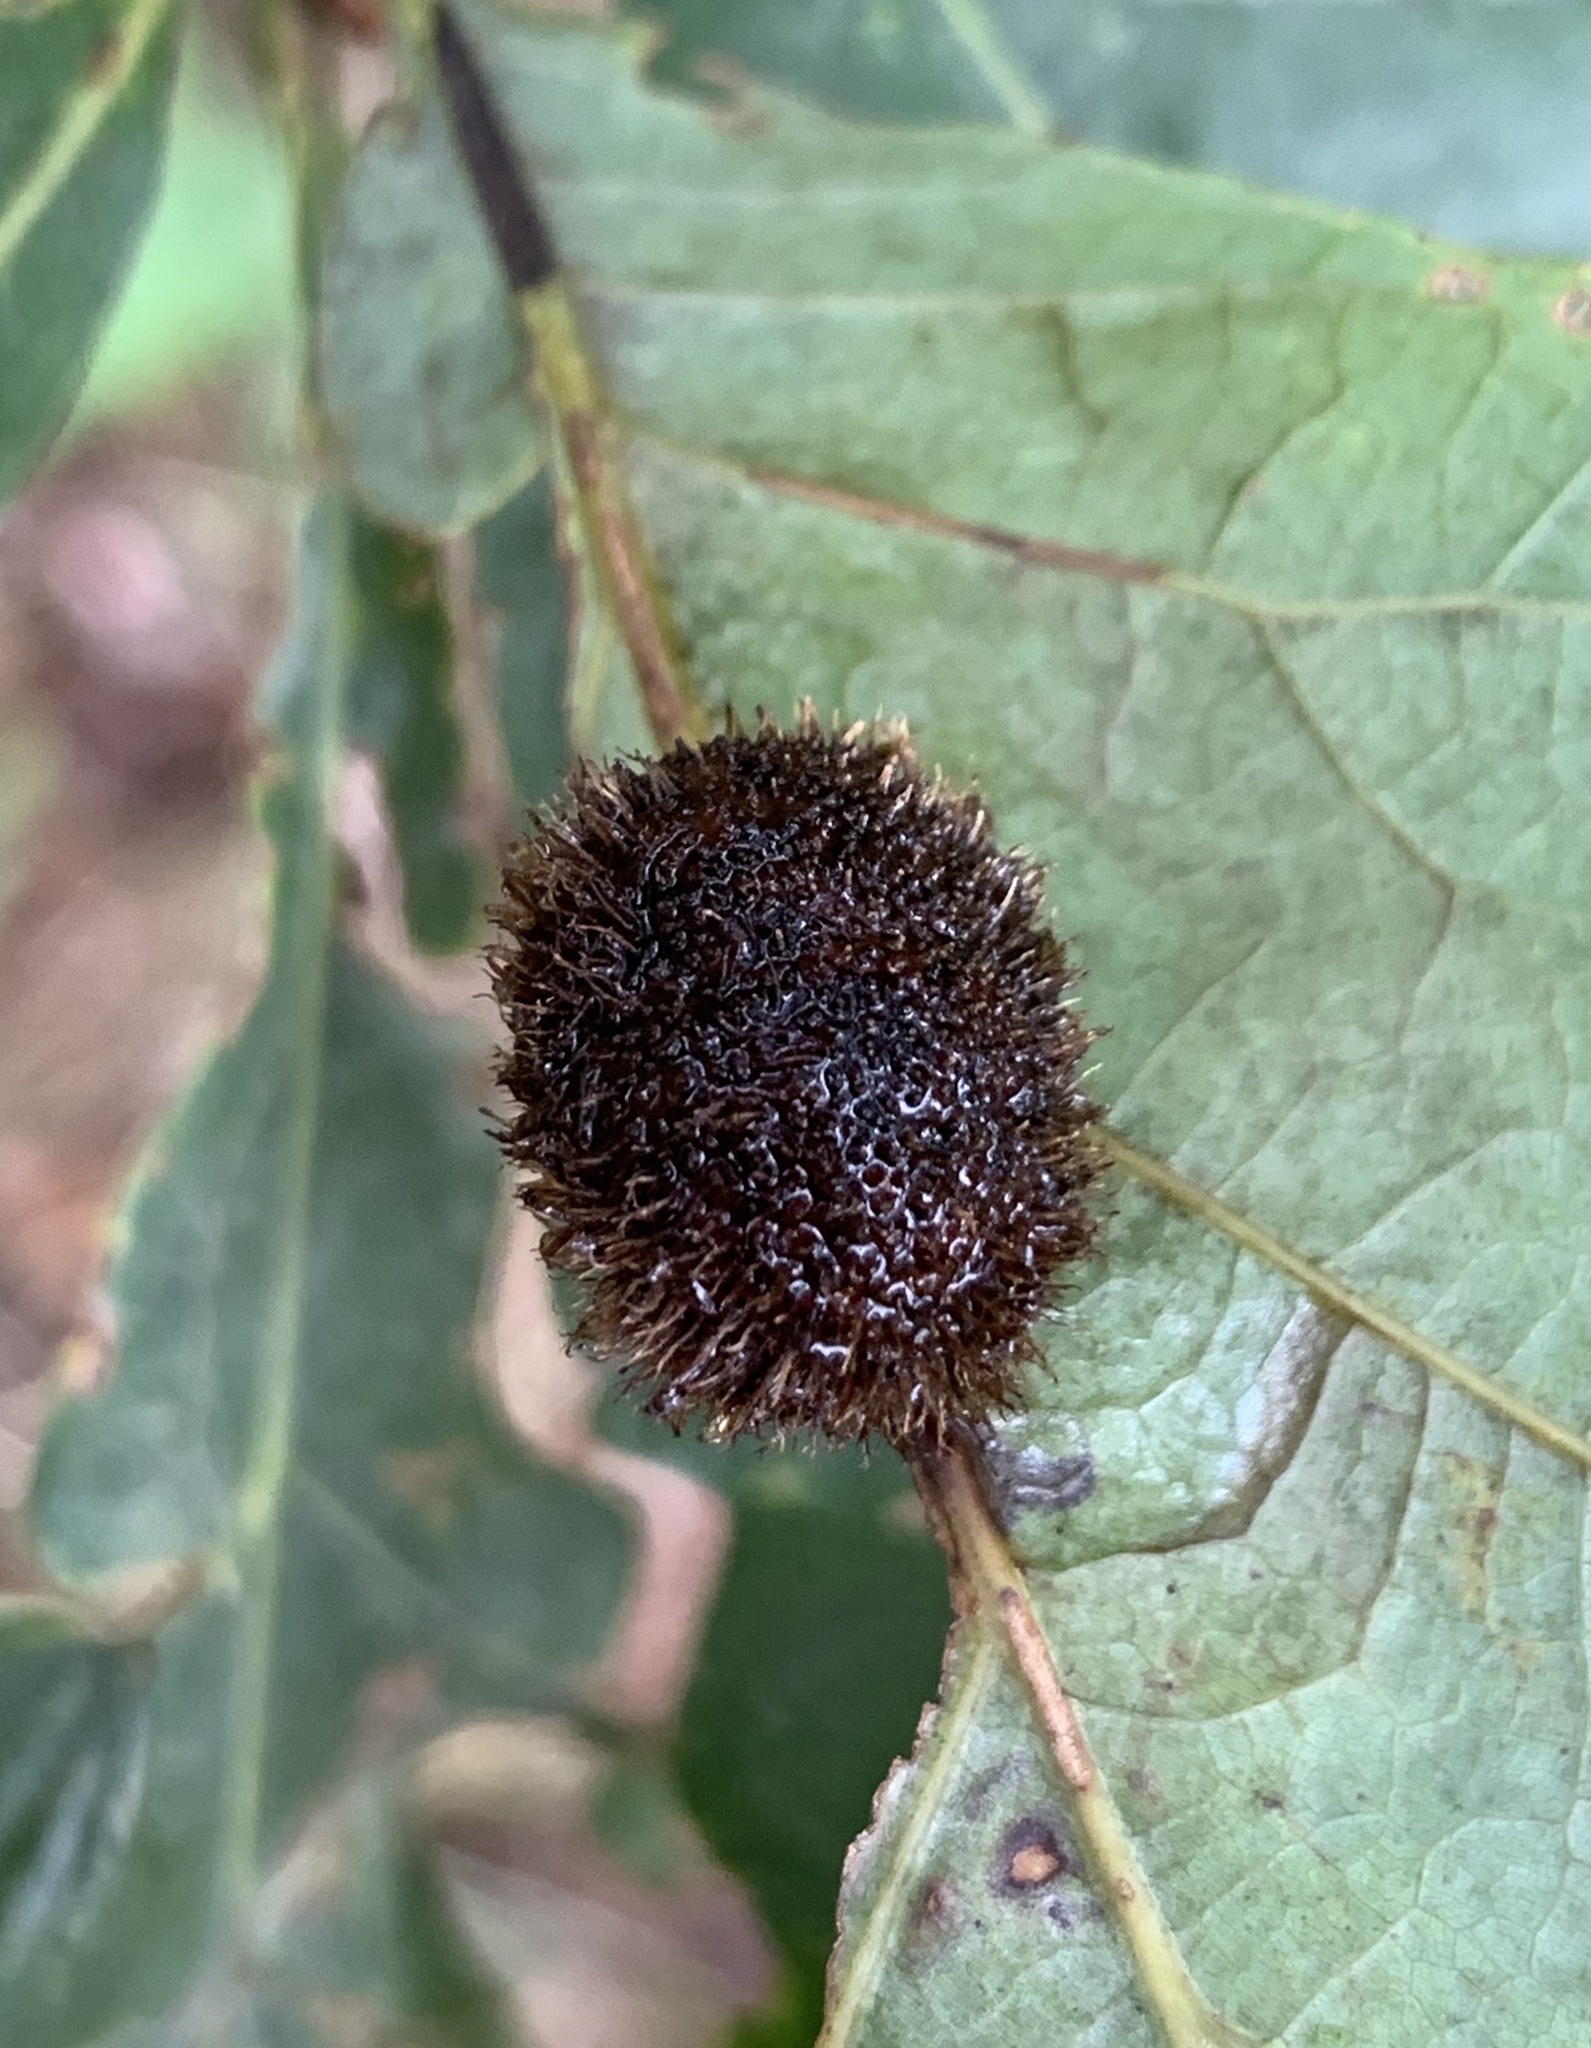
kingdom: Animalia
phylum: Arthropoda
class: Insecta
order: Hymenoptera
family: Cynipidae
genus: Acraspis
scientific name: Acraspis erinacei
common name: Hedgehog gall wasp
